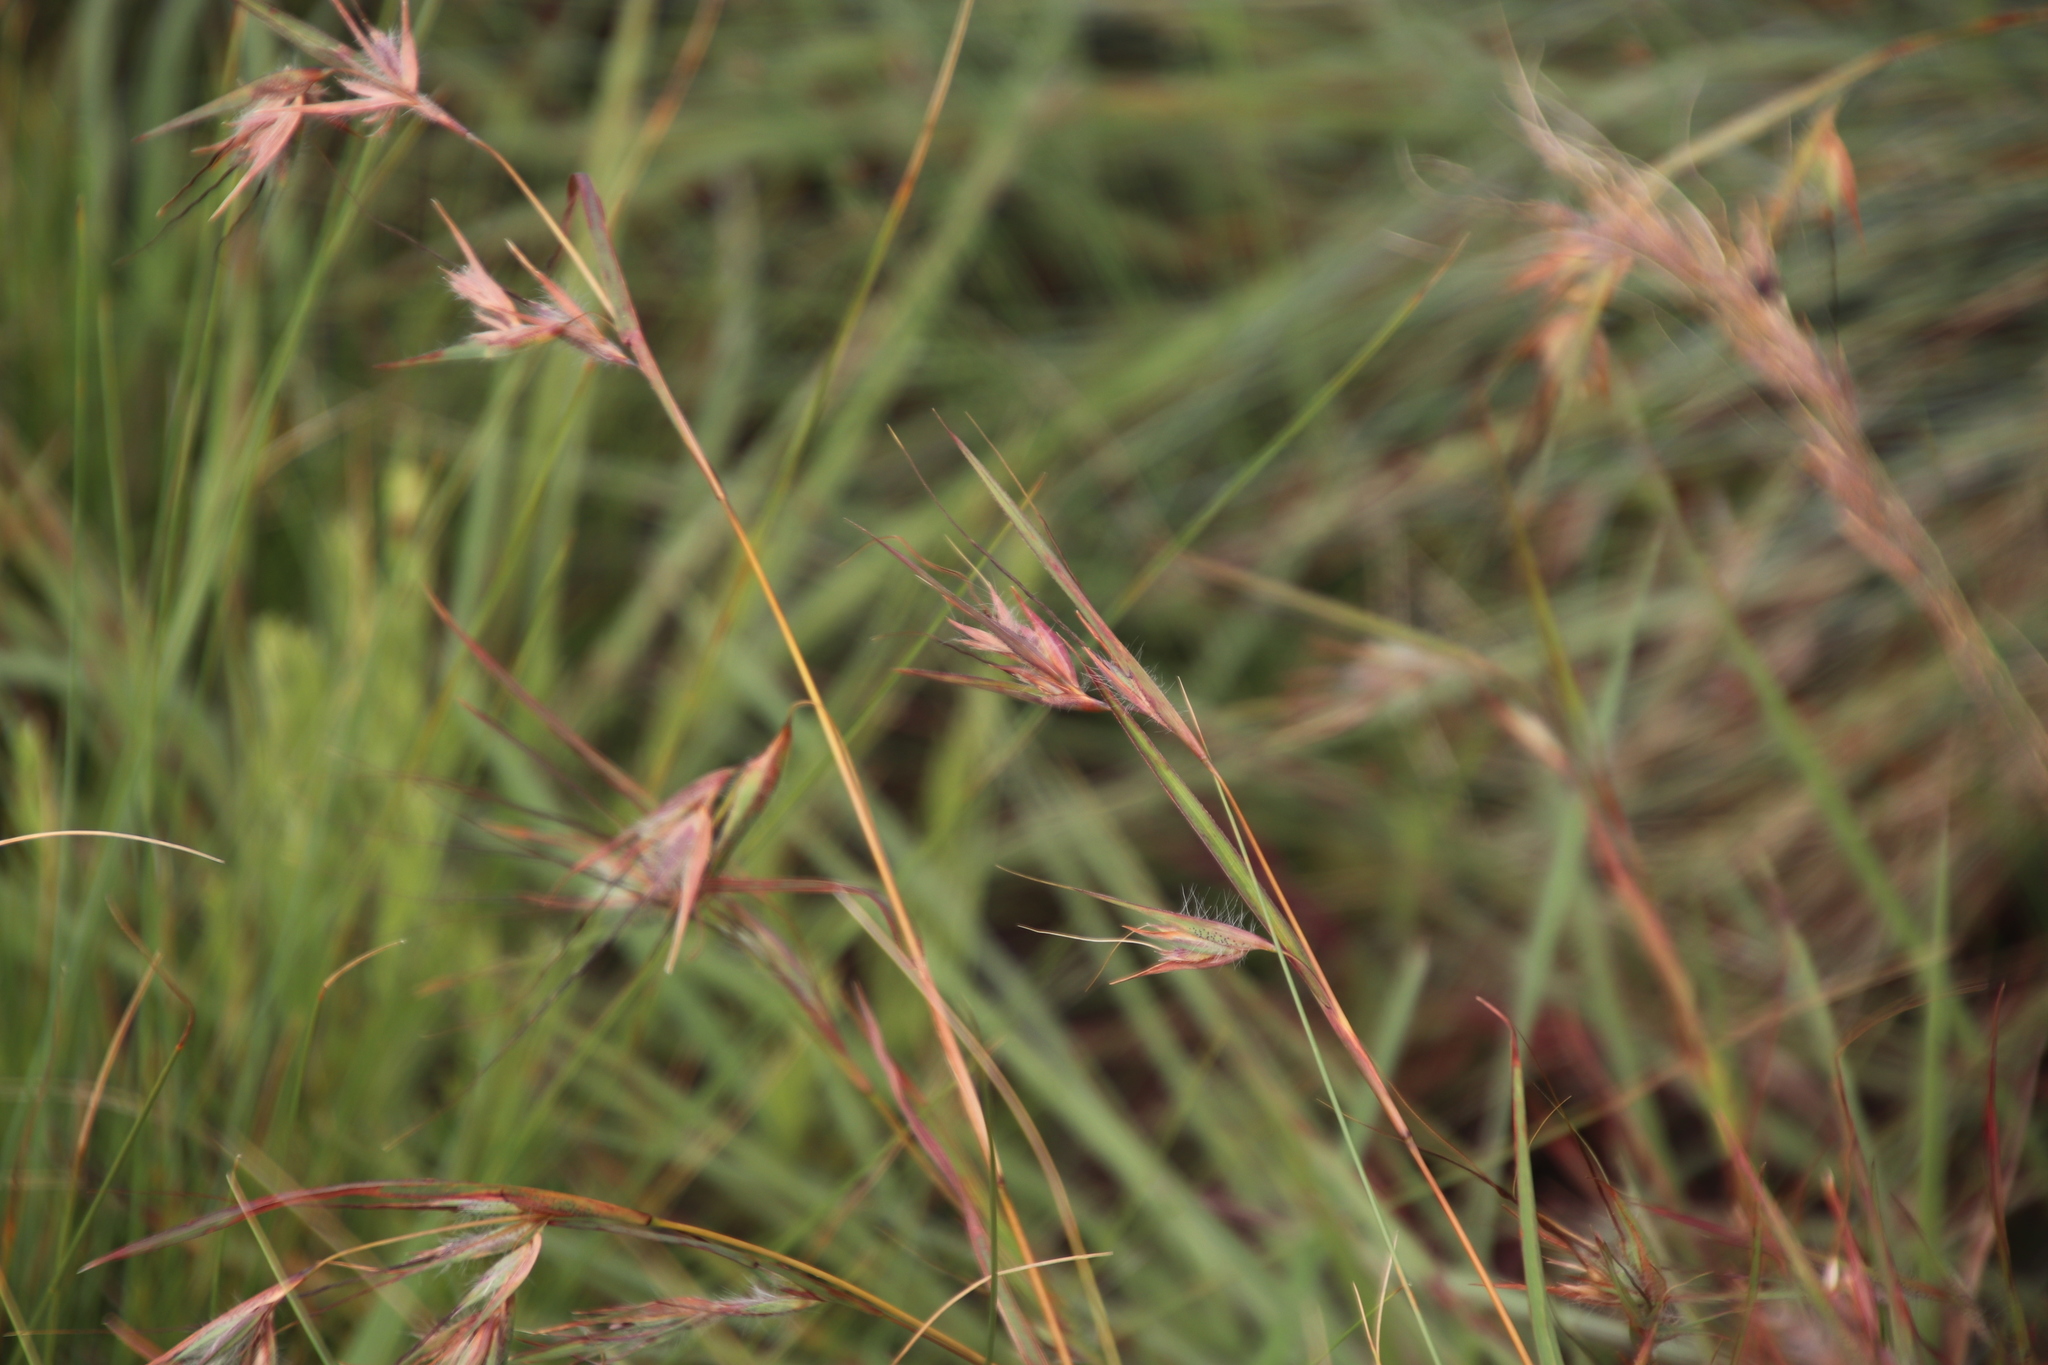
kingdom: Plantae
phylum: Tracheophyta
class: Liliopsida
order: Poales
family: Poaceae
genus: Themeda
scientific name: Themeda triandra
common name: Kangaroo grass
